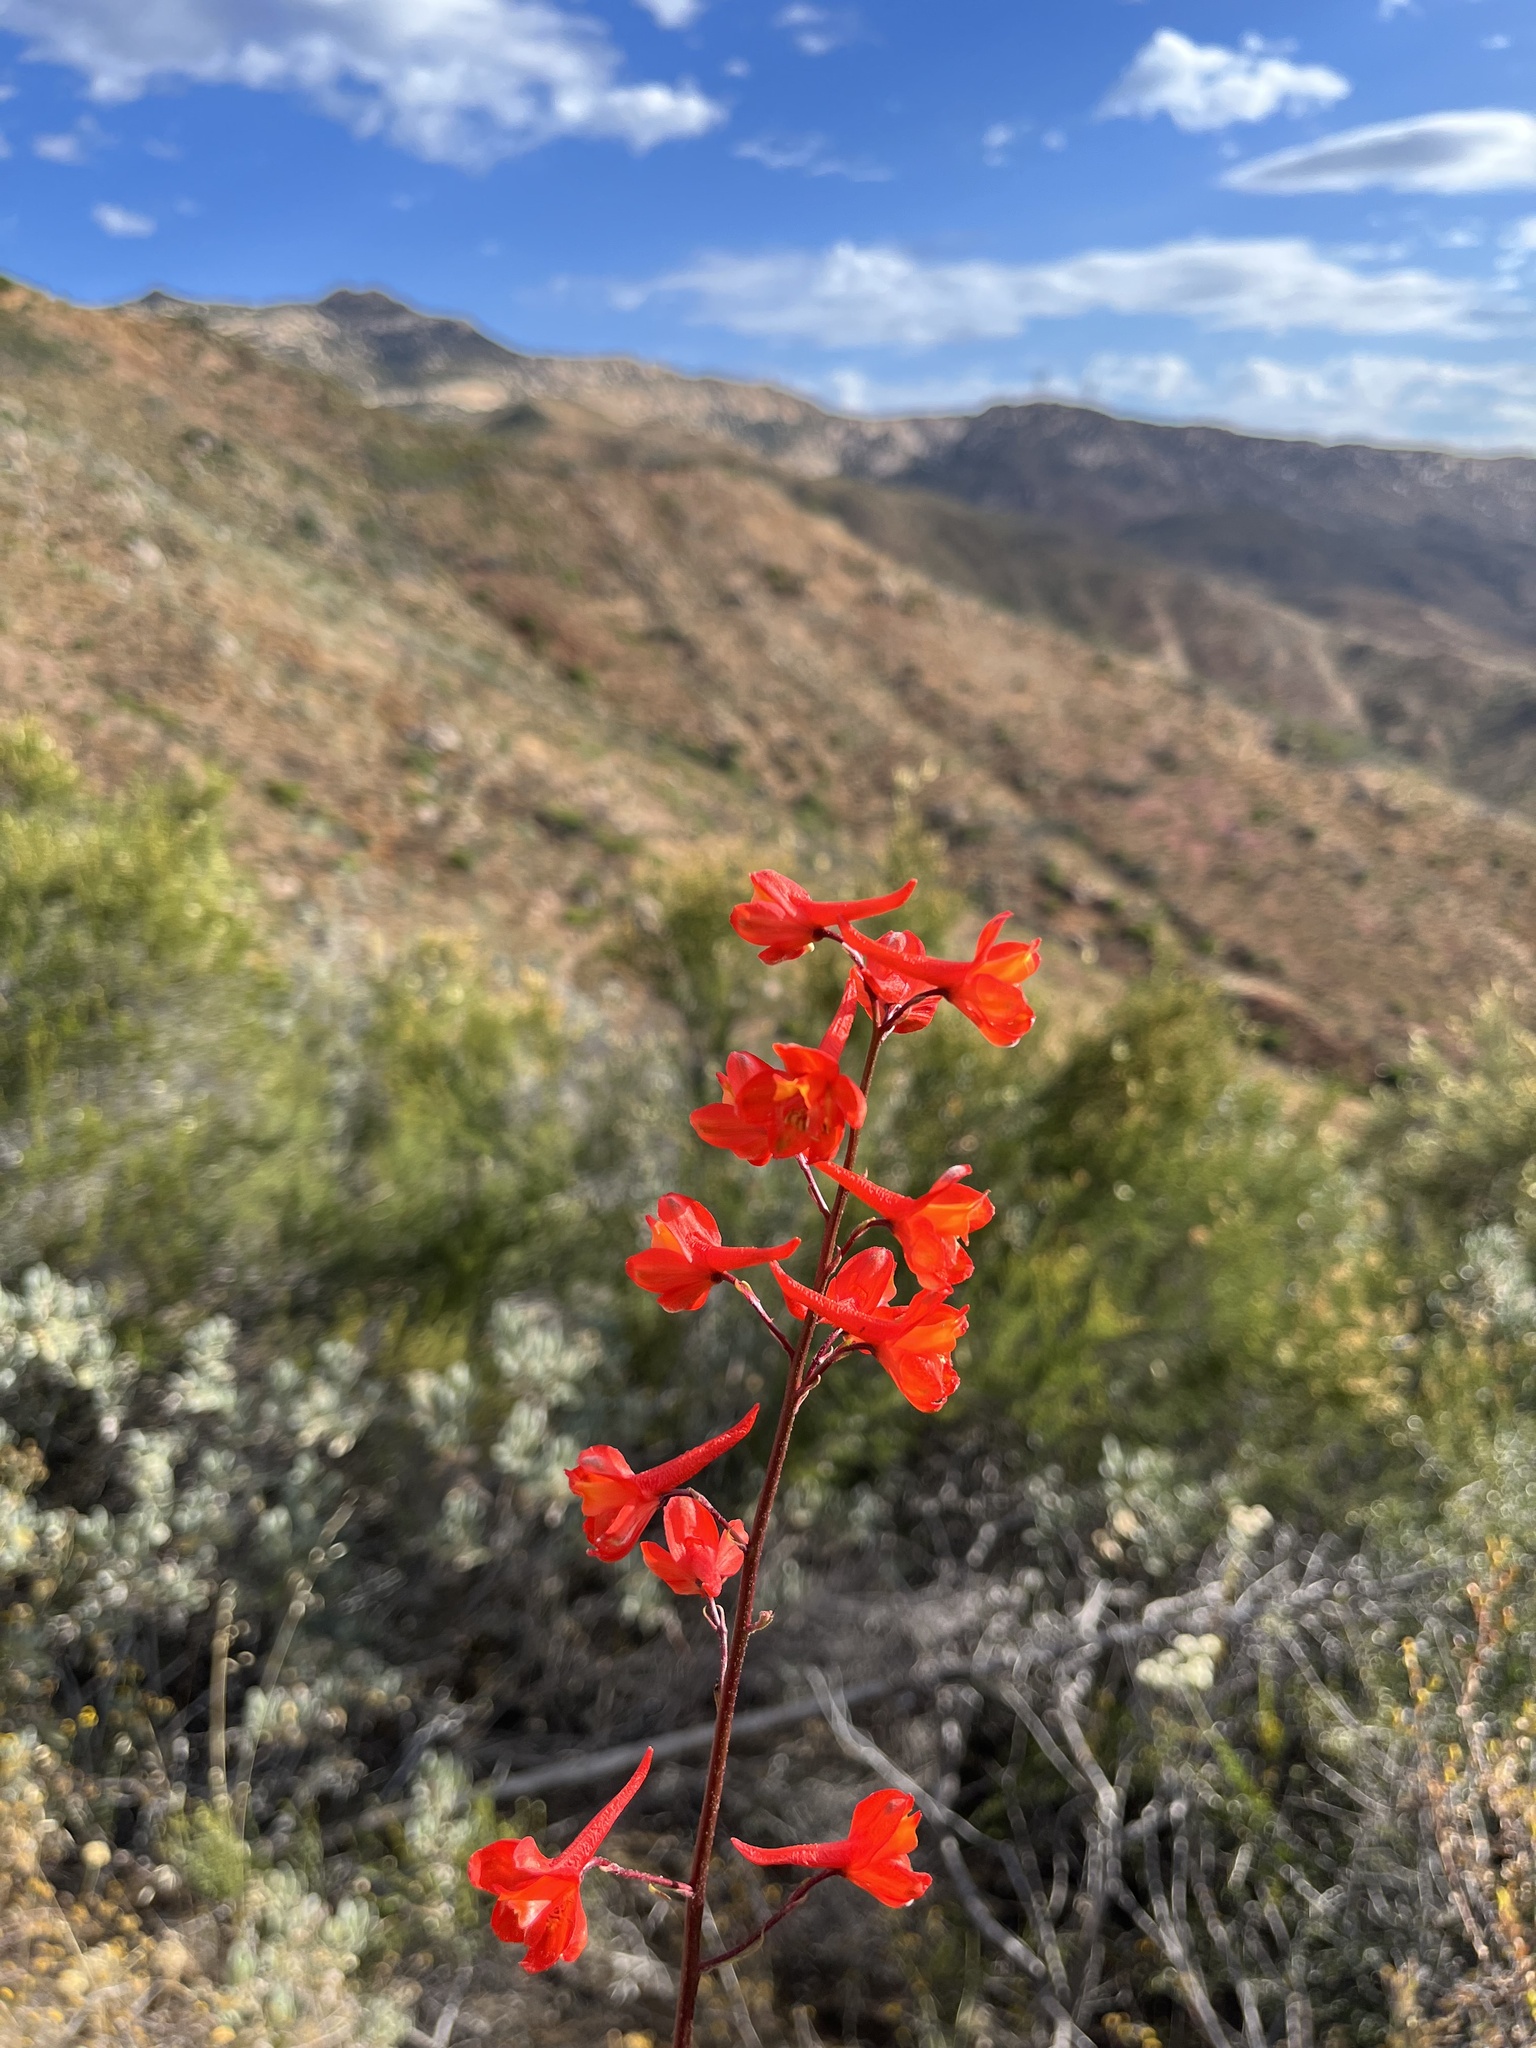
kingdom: Plantae
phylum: Tracheophyta
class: Magnoliopsida
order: Ranunculales
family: Ranunculaceae
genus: Delphinium
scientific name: Delphinium cardinale
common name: Scarlet larkspur
